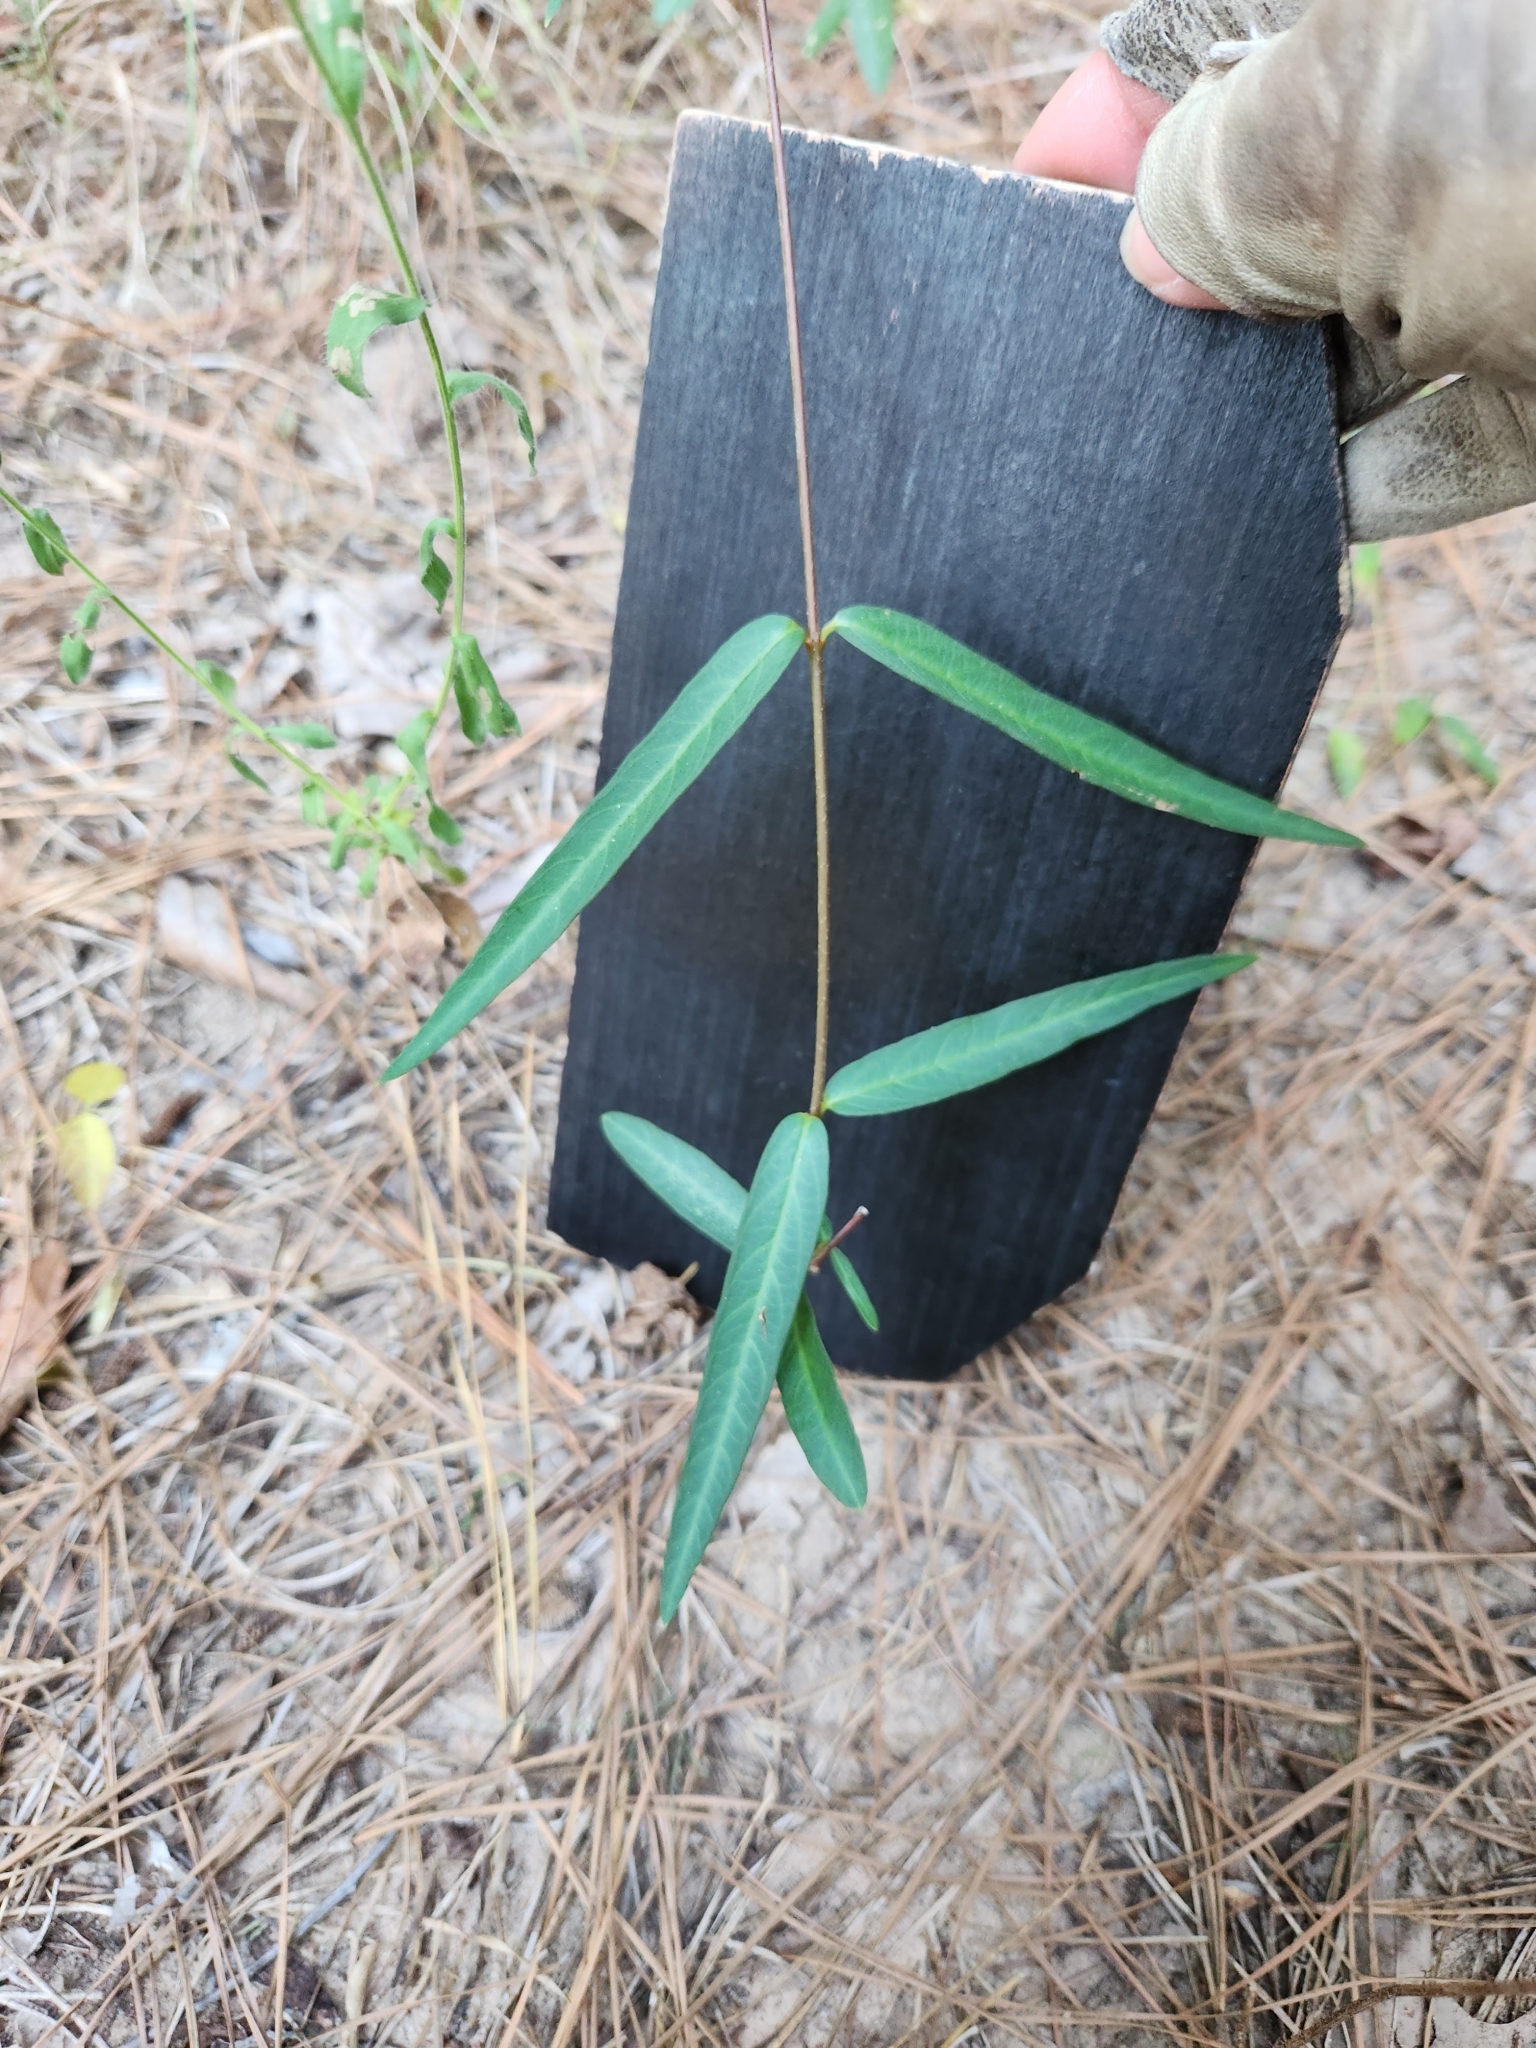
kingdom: Plantae
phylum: Tracheophyta
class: Magnoliopsida
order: Gentianales
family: Apocynaceae
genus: Thyrsanthella
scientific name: Thyrsanthella difformis
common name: Climbing dogbane
